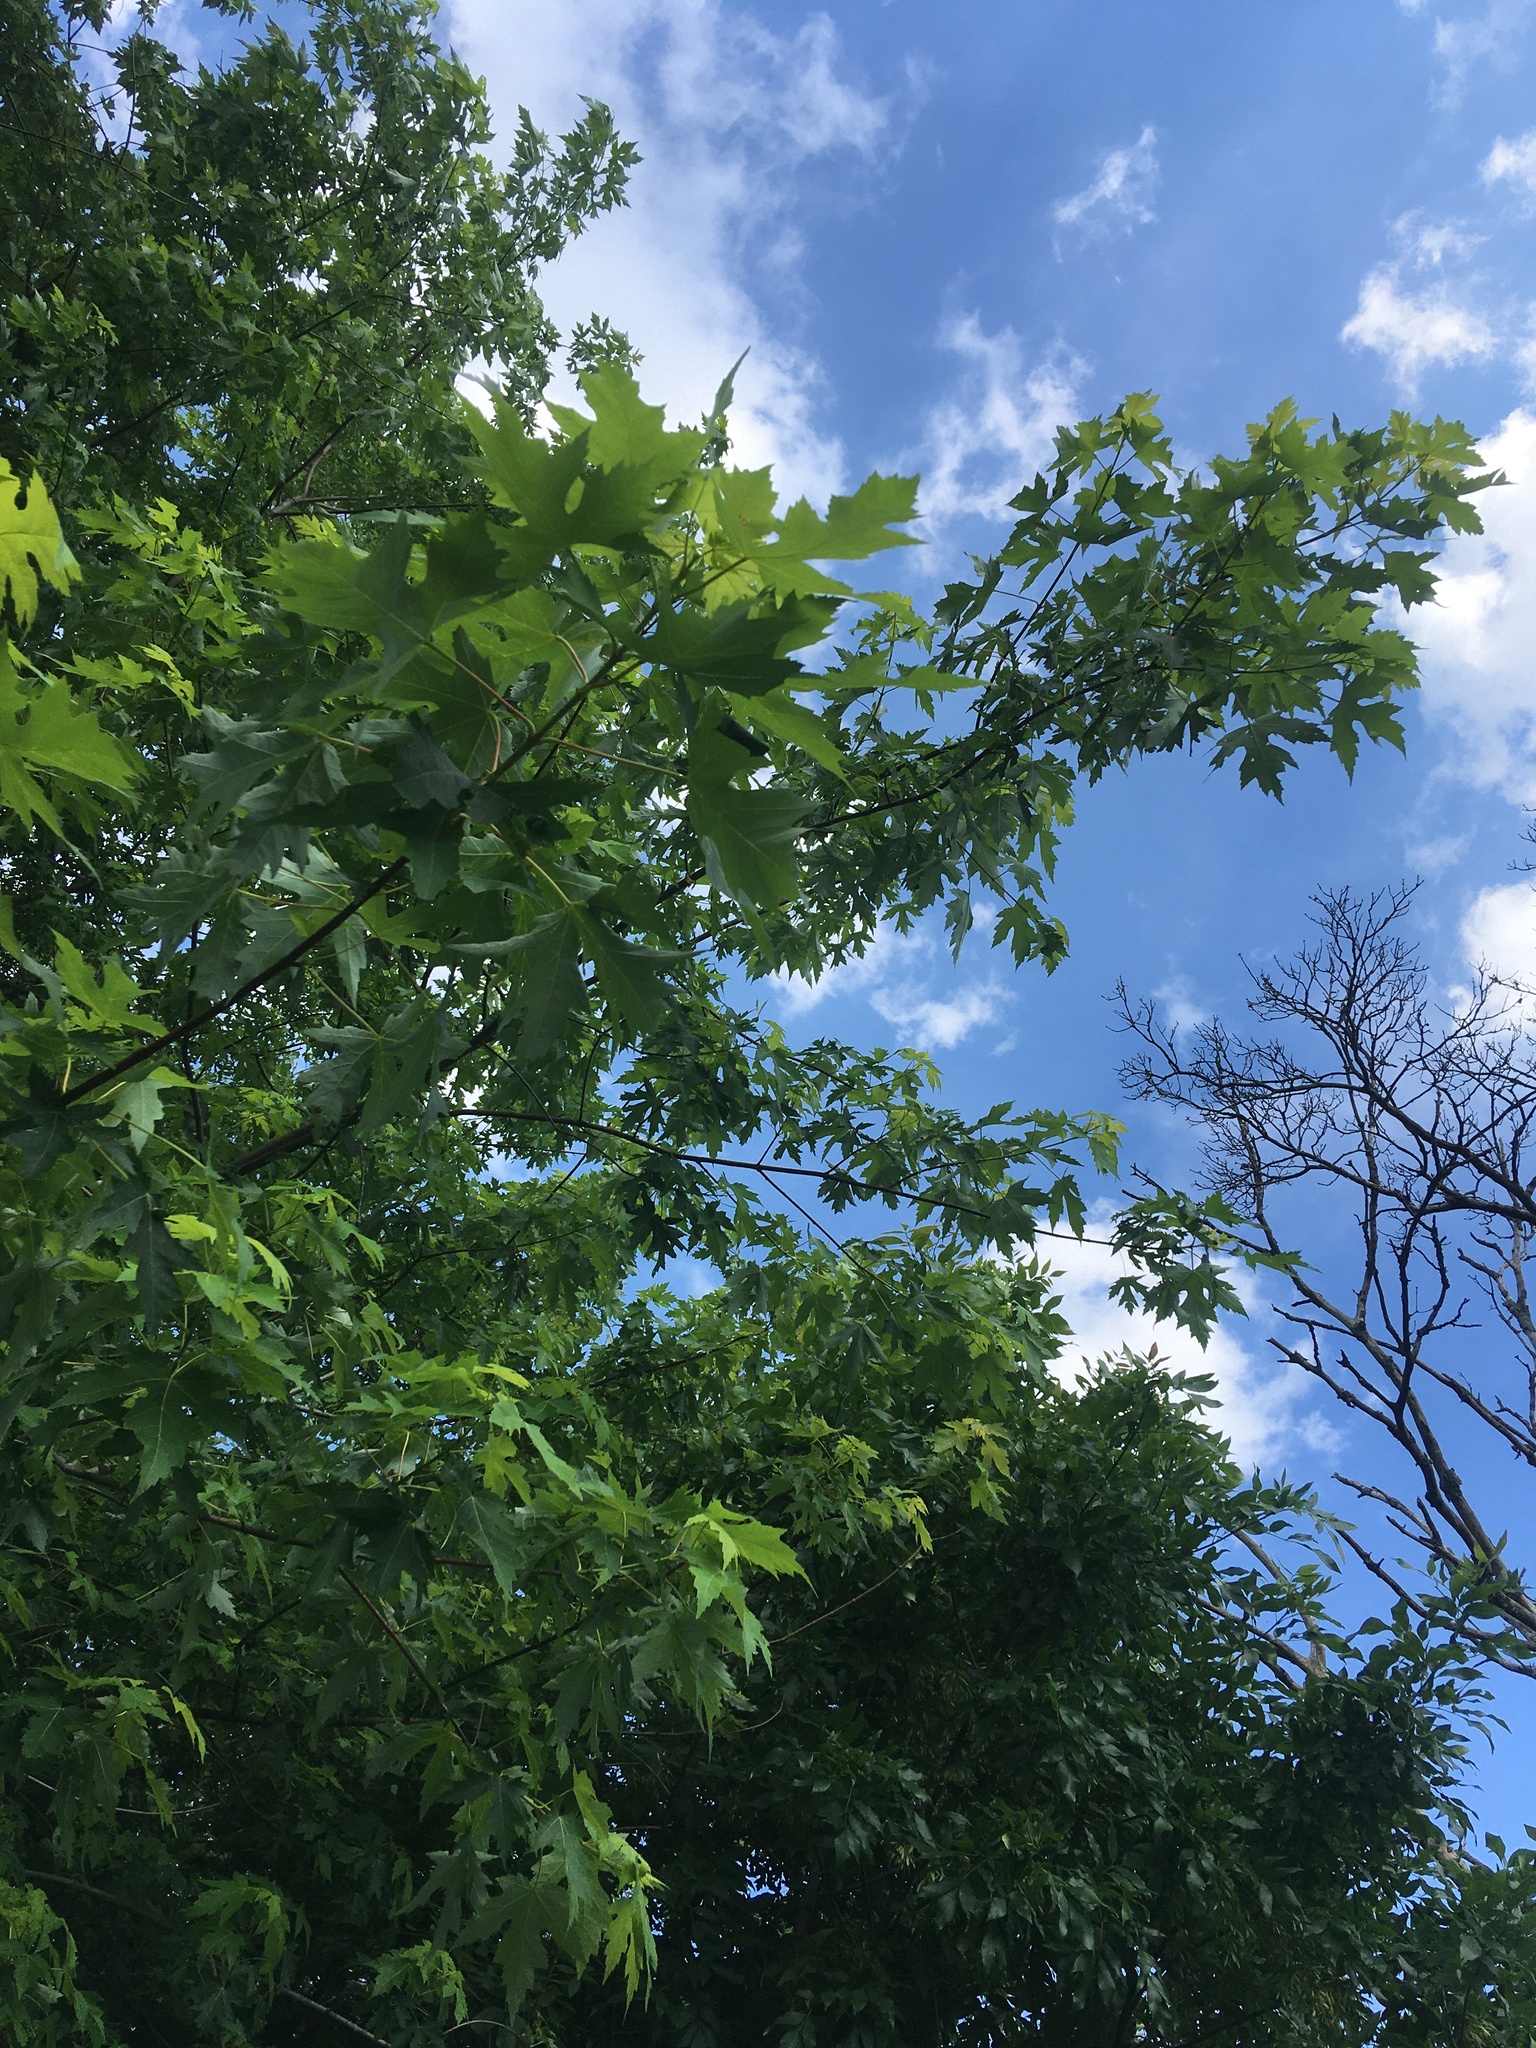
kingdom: Plantae
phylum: Tracheophyta
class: Magnoliopsida
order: Sapindales
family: Sapindaceae
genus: Acer
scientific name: Acer saccharinum
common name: Silver maple
